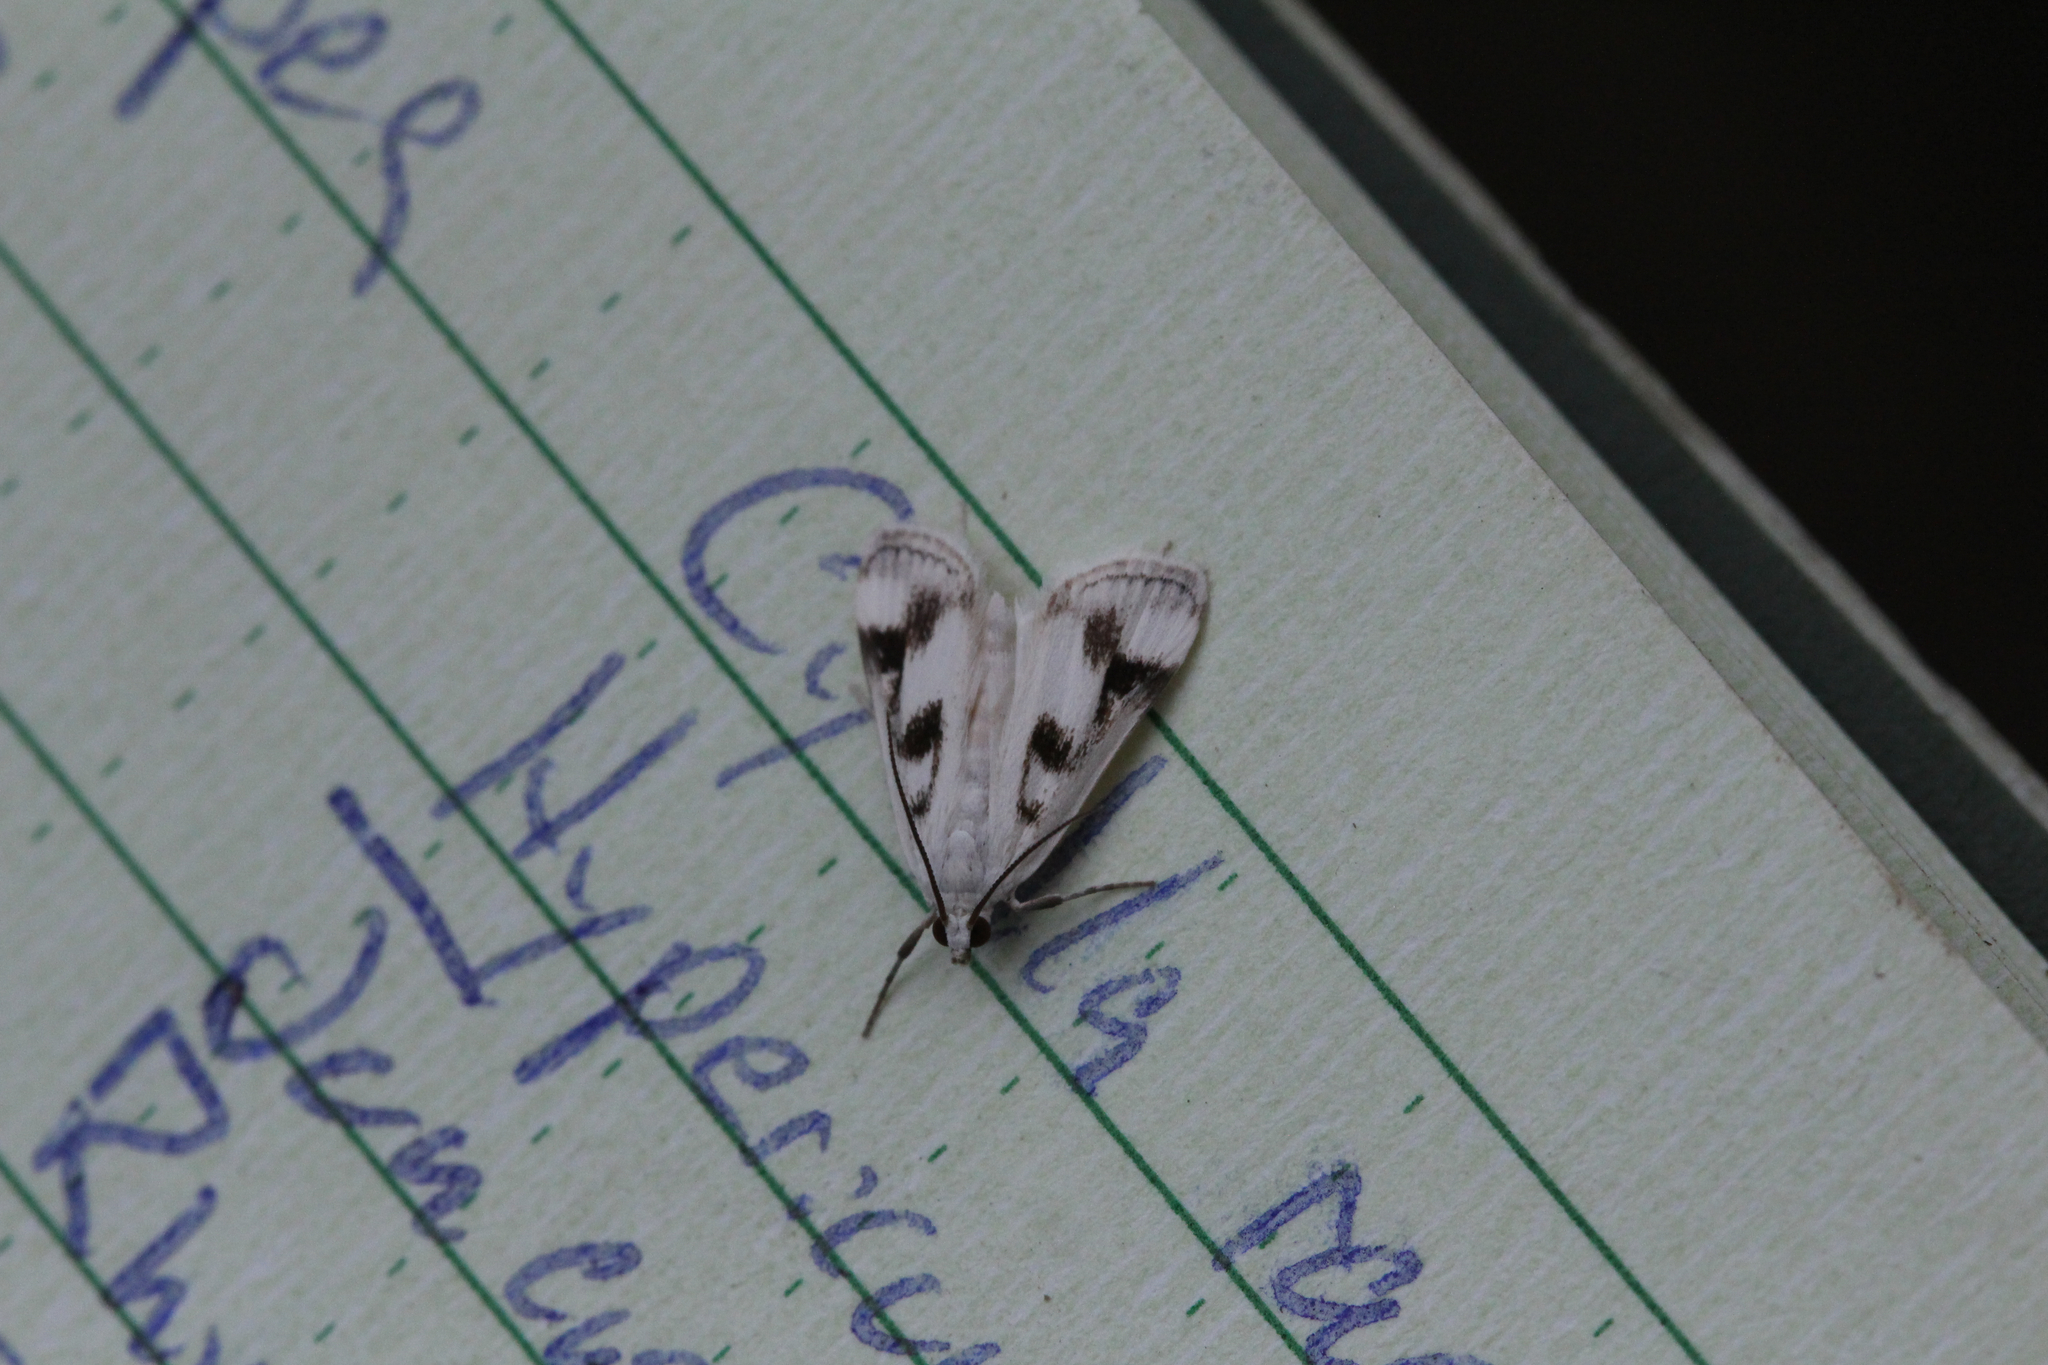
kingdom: Animalia
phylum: Arthropoda
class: Insecta
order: Lepidoptera
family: Crambidae
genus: Parapoynx
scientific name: Parapoynx maculalis
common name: Polymorphic pondweed moth
